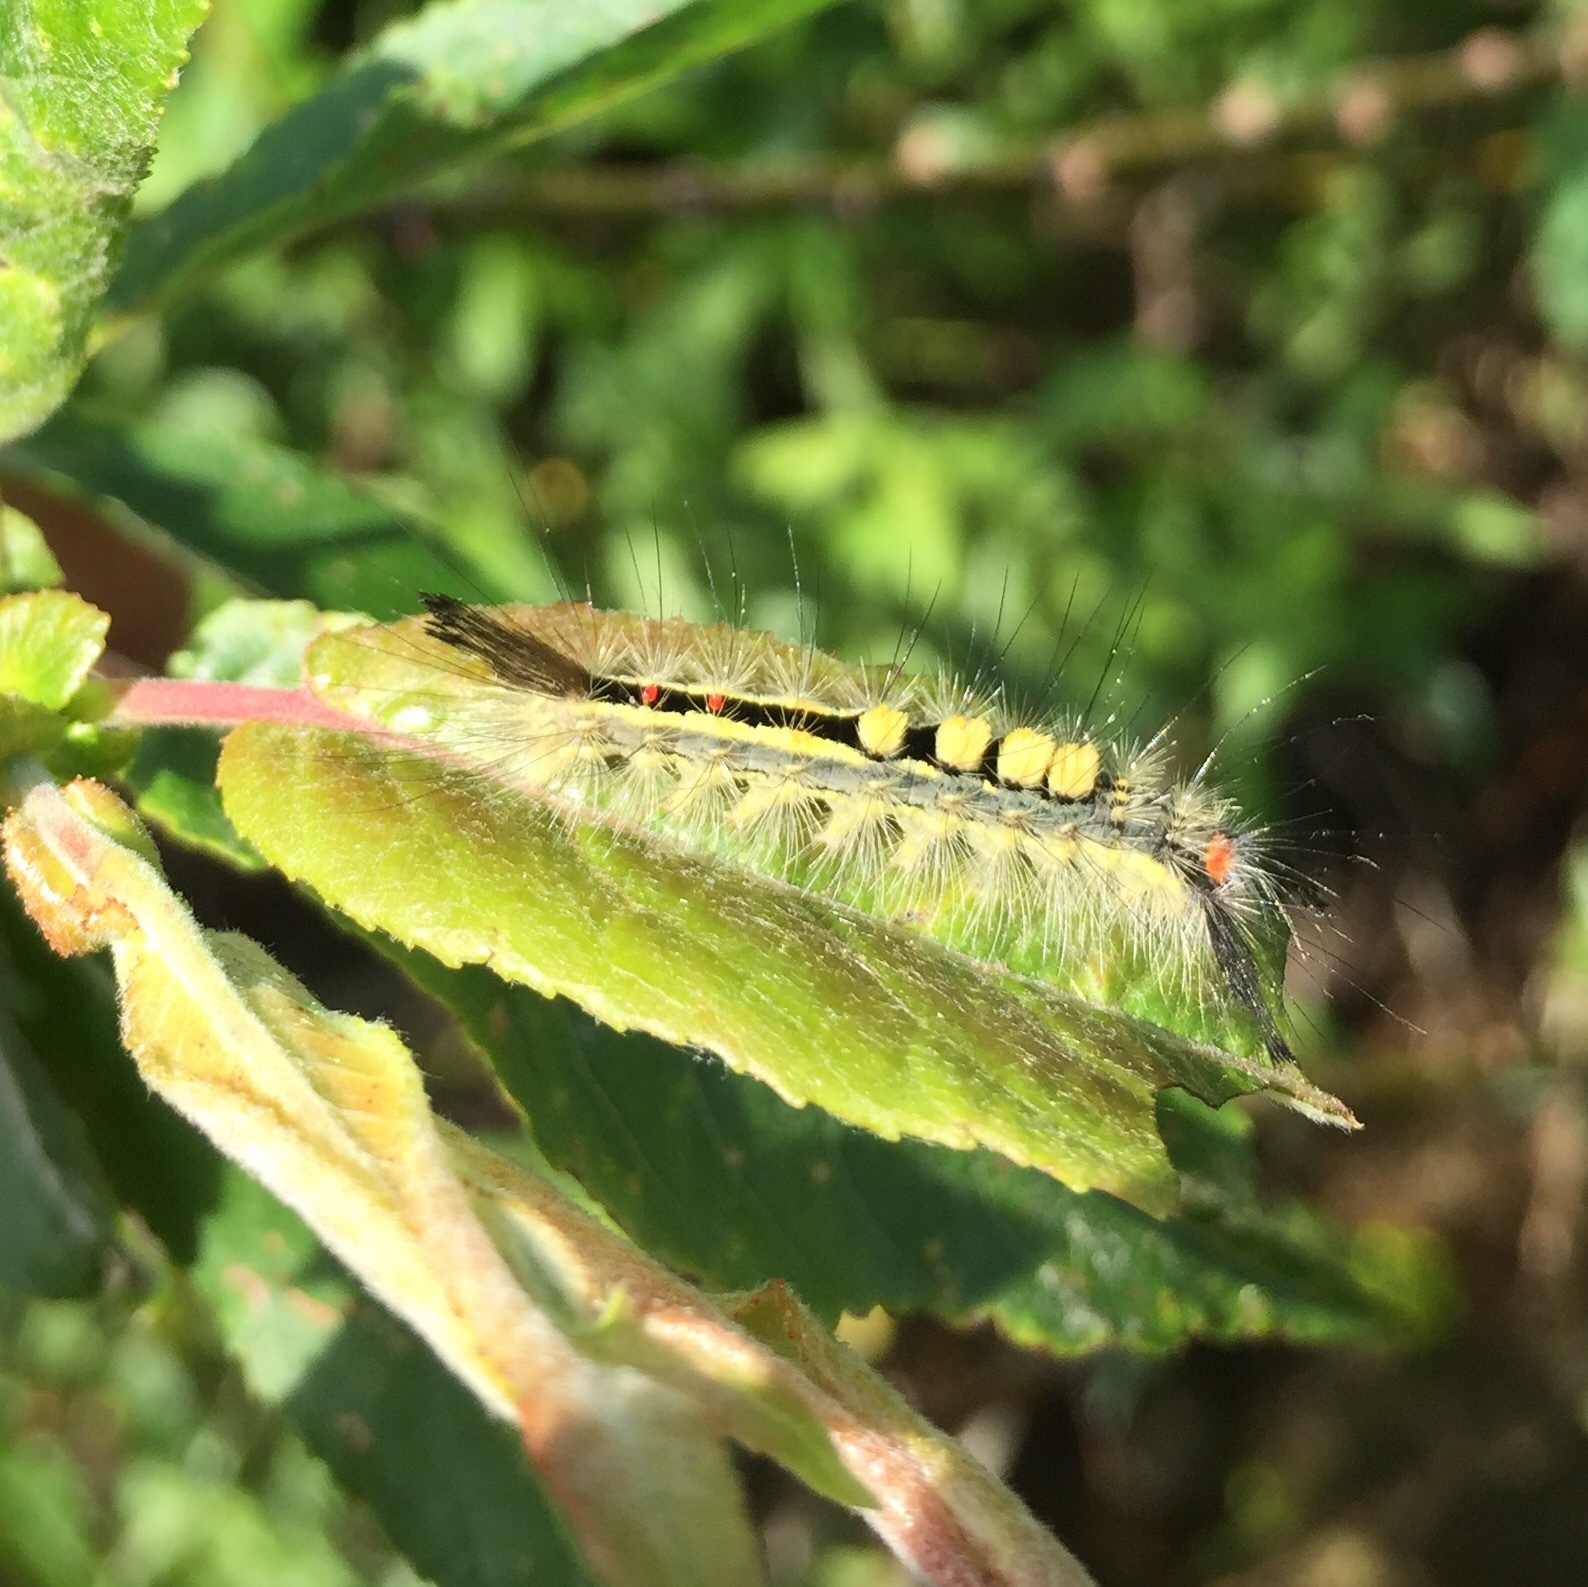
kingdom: Animalia
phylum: Arthropoda
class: Insecta
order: Lepidoptera
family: Erebidae
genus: Orgyia
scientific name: Orgyia leucostigma
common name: White-marked tussock moth
